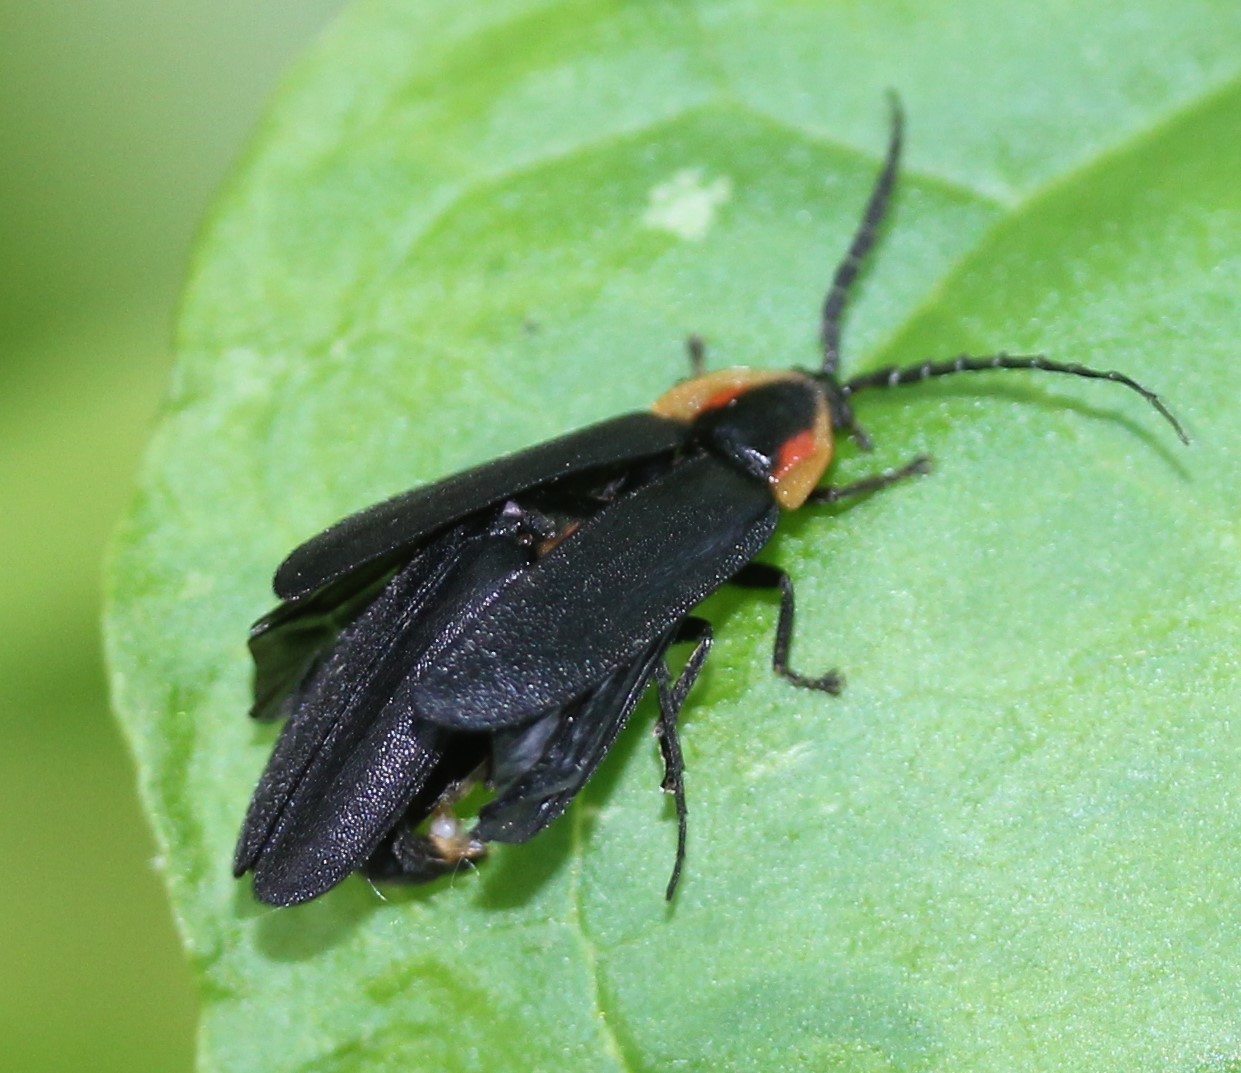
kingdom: Animalia
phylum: Arthropoda
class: Insecta
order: Coleoptera
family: Lampyridae
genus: Lucidota
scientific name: Lucidota atra
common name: Black firefly
